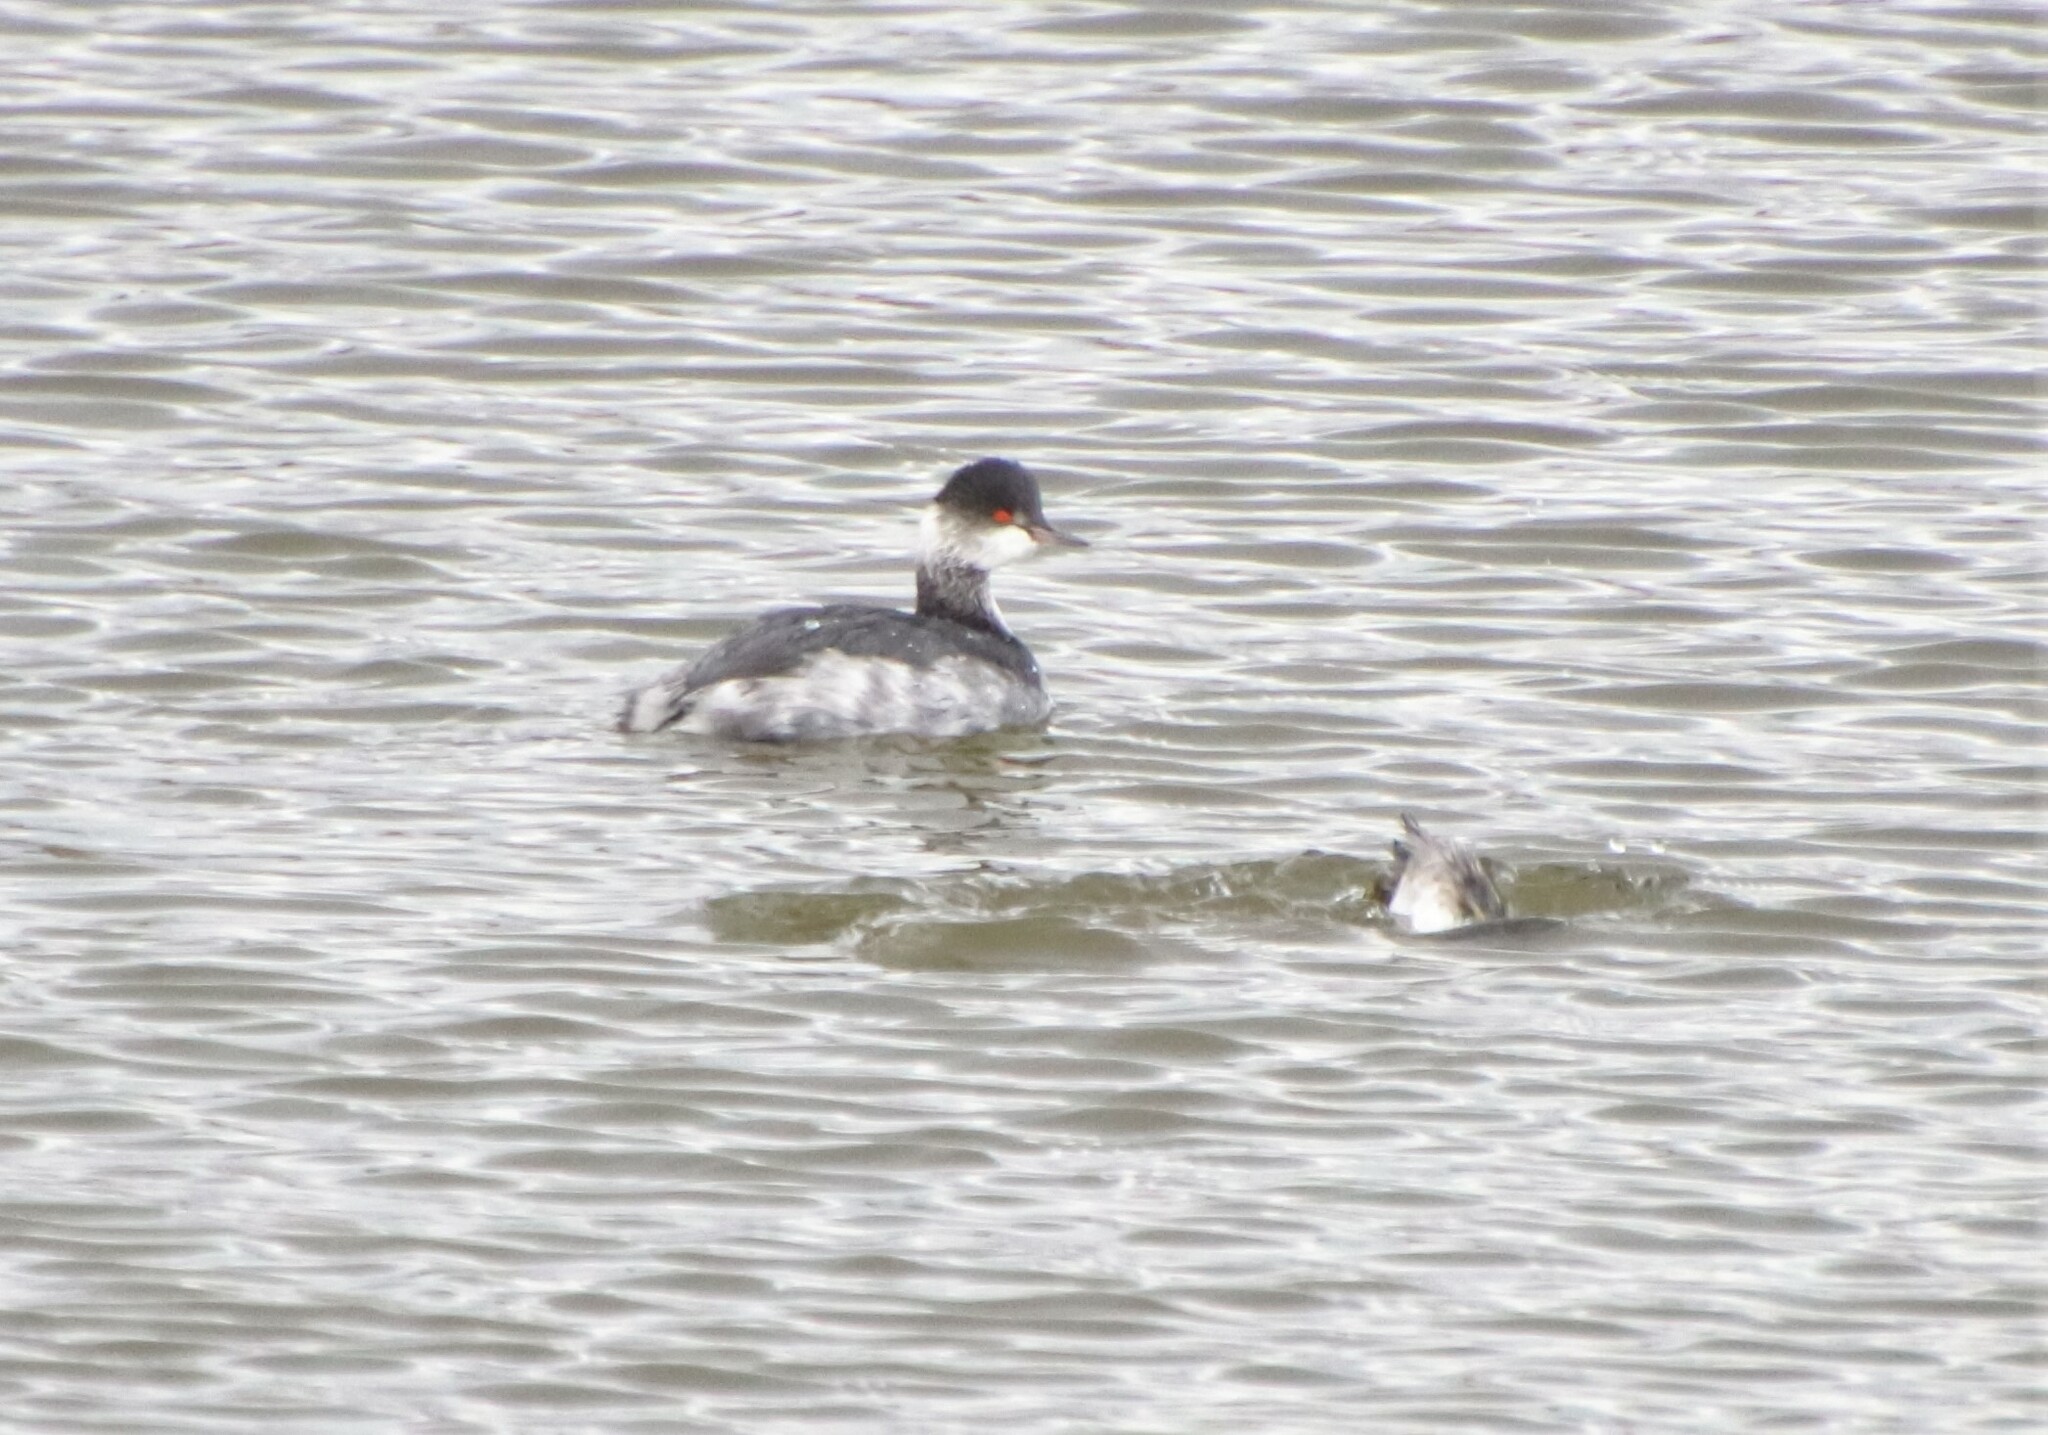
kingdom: Animalia
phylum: Chordata
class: Aves
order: Podicipediformes
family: Podicipedidae
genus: Podiceps
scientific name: Podiceps nigricollis
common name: Black-necked grebe
